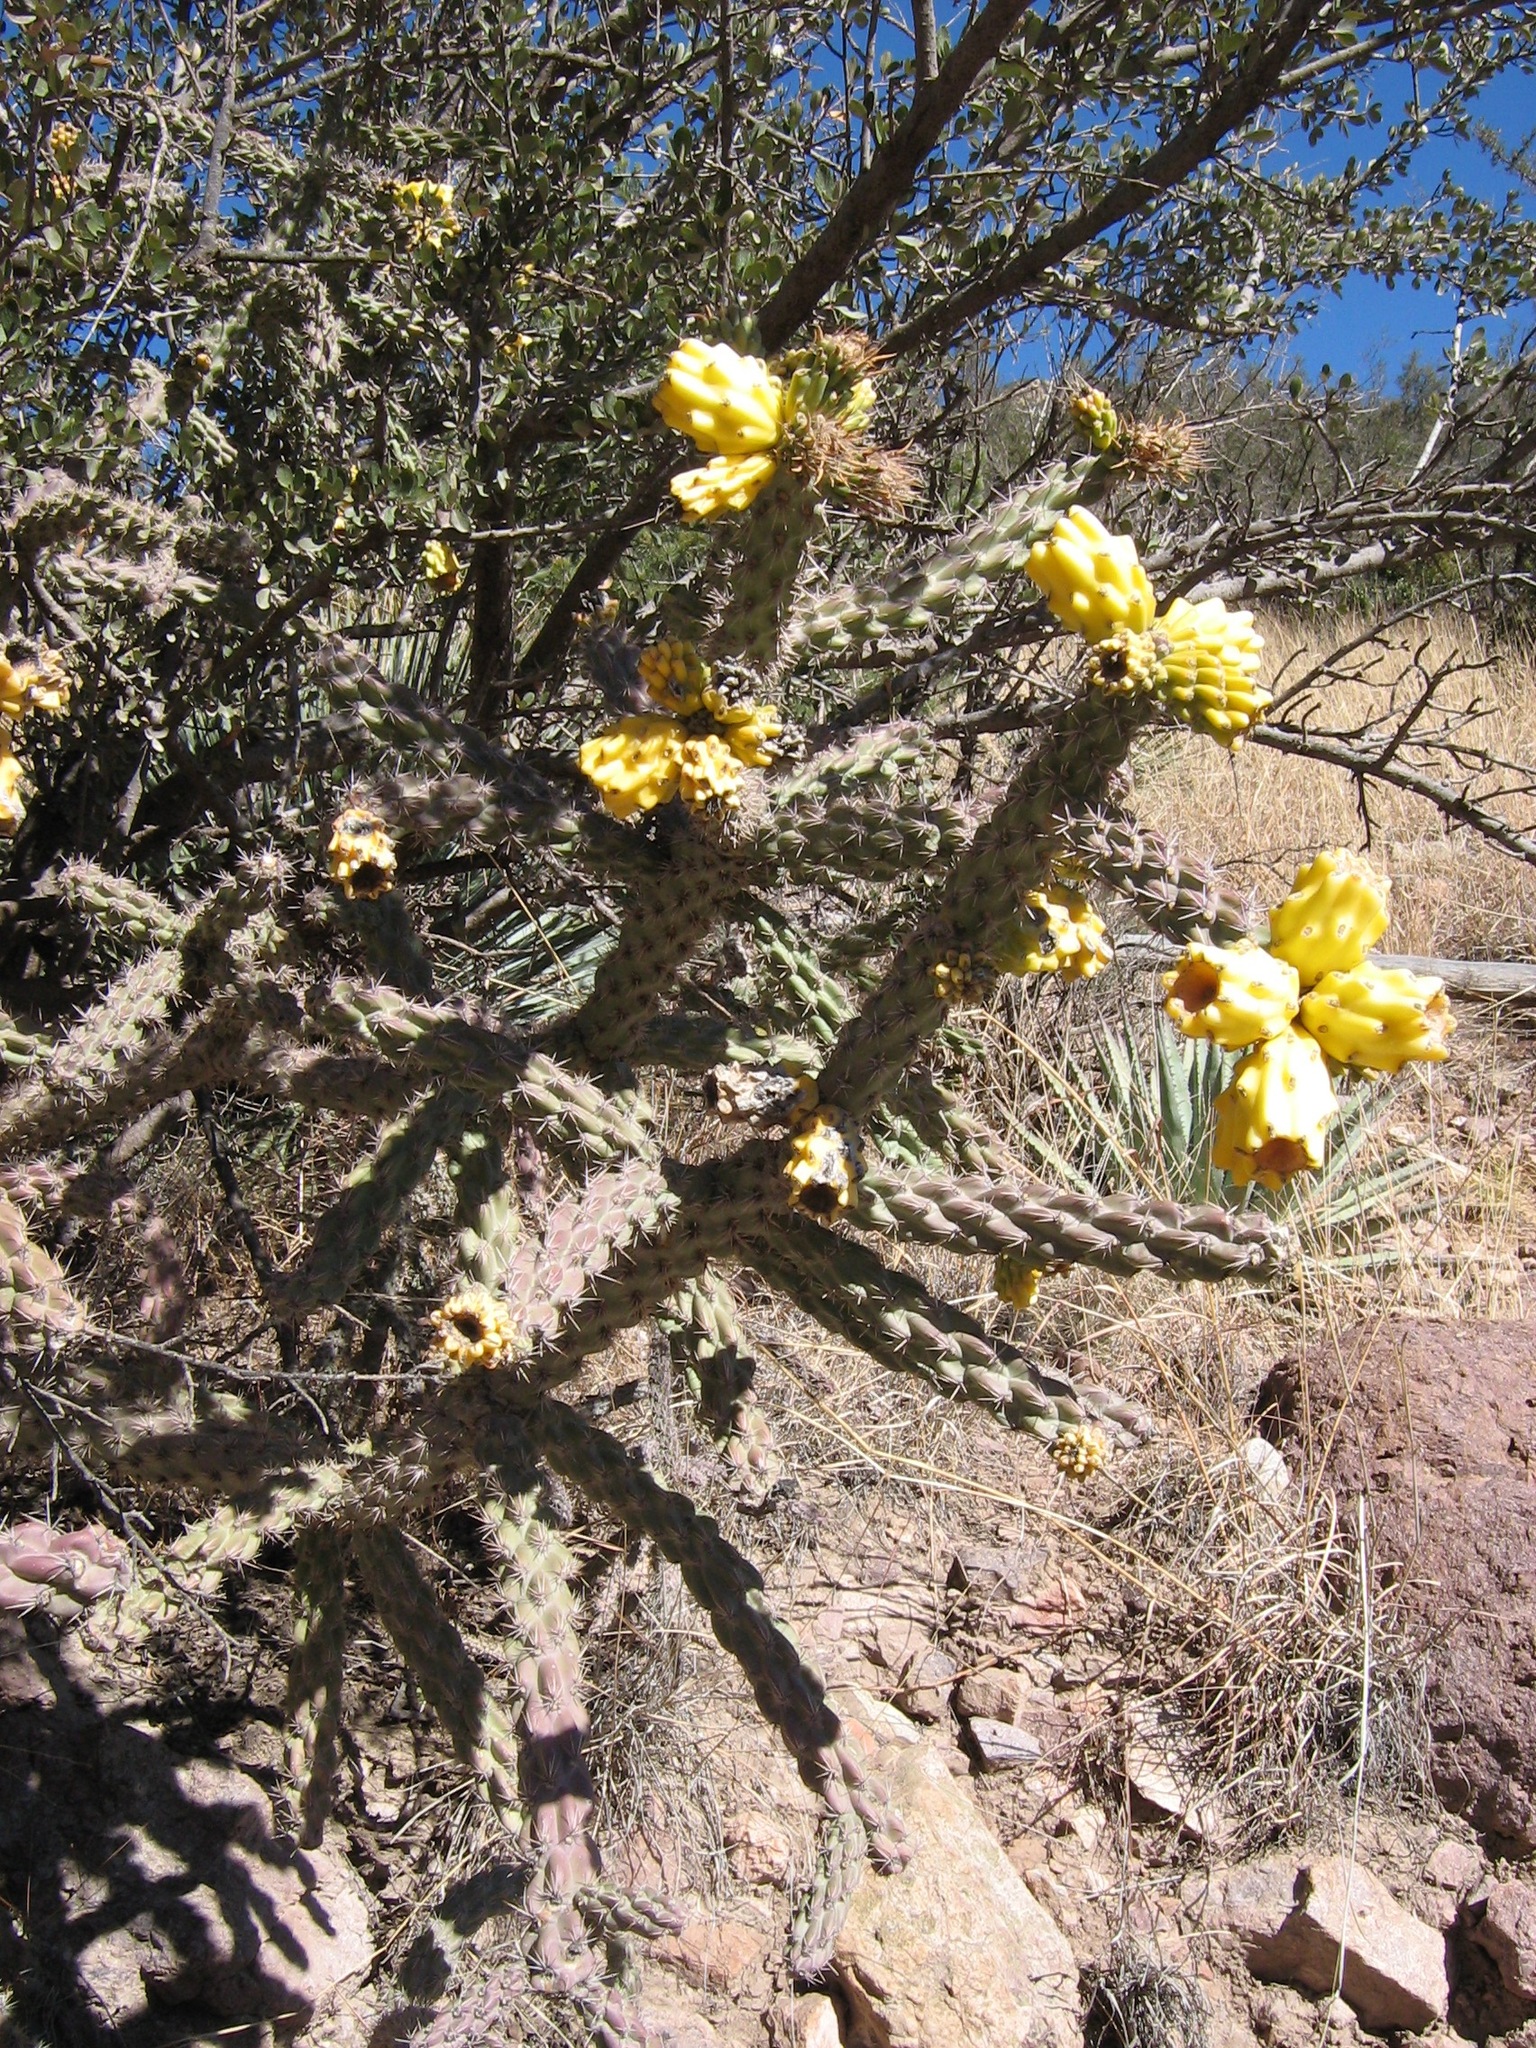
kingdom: Plantae
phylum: Tracheophyta
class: Magnoliopsida
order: Caryophyllales
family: Cactaceae
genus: Cylindropuntia
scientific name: Cylindropuntia imbricata
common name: Candelabrum cactus
